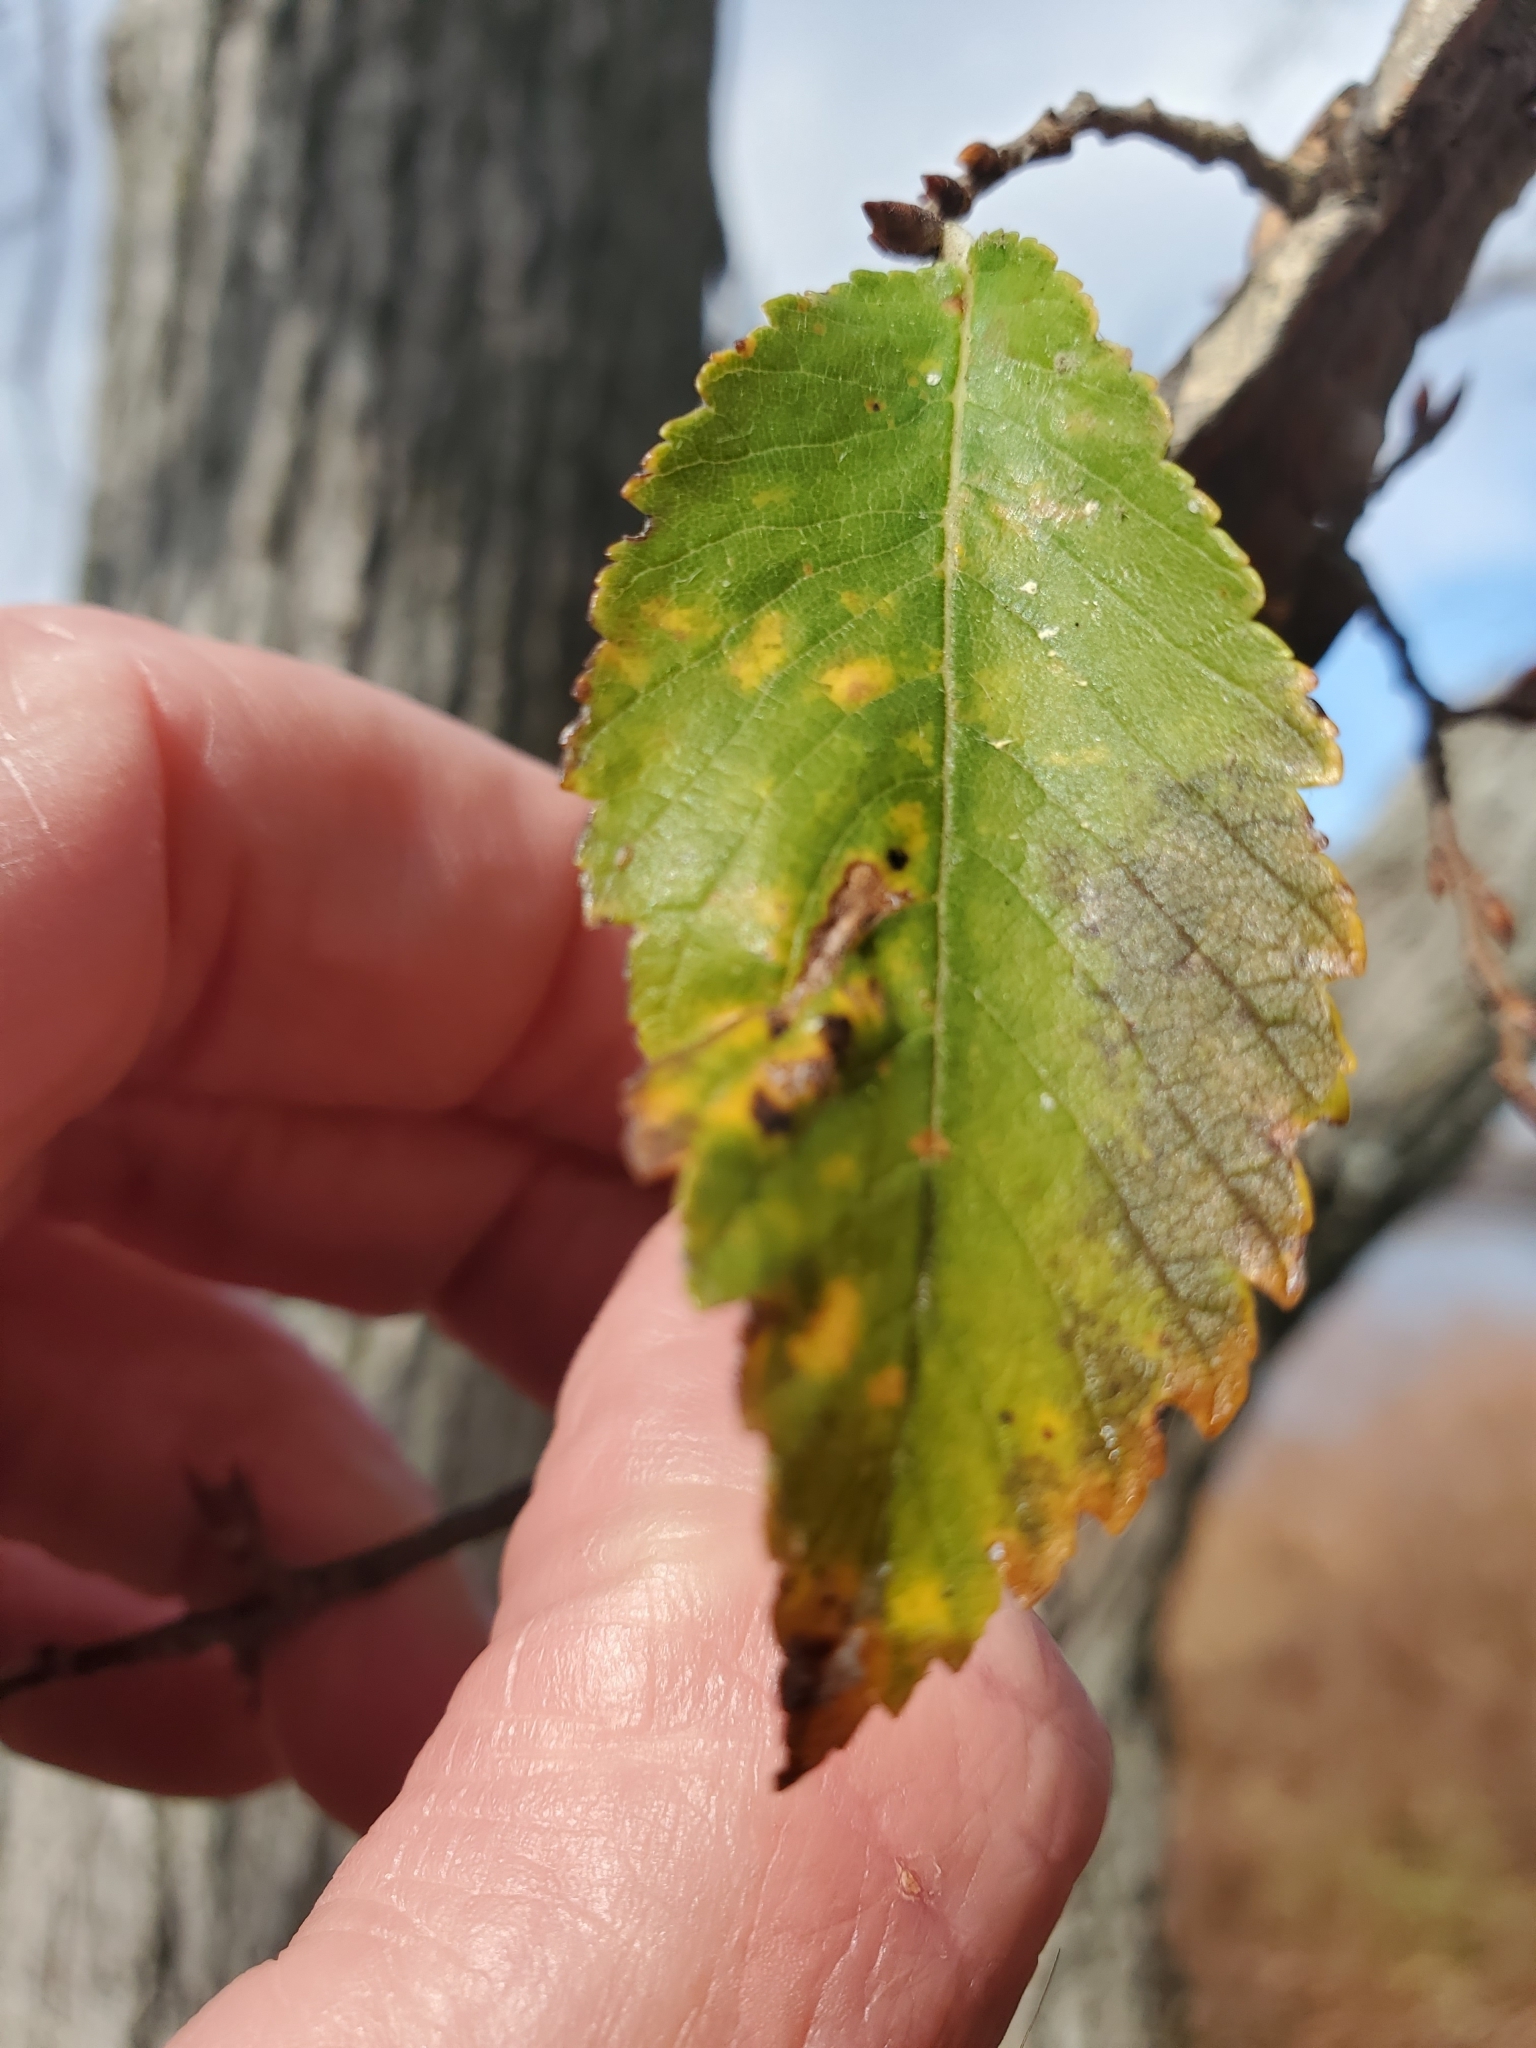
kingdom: Plantae
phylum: Tracheophyta
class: Magnoliopsida
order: Rosales
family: Ulmaceae
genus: Ulmus
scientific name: Ulmus alata
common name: Winged elm
